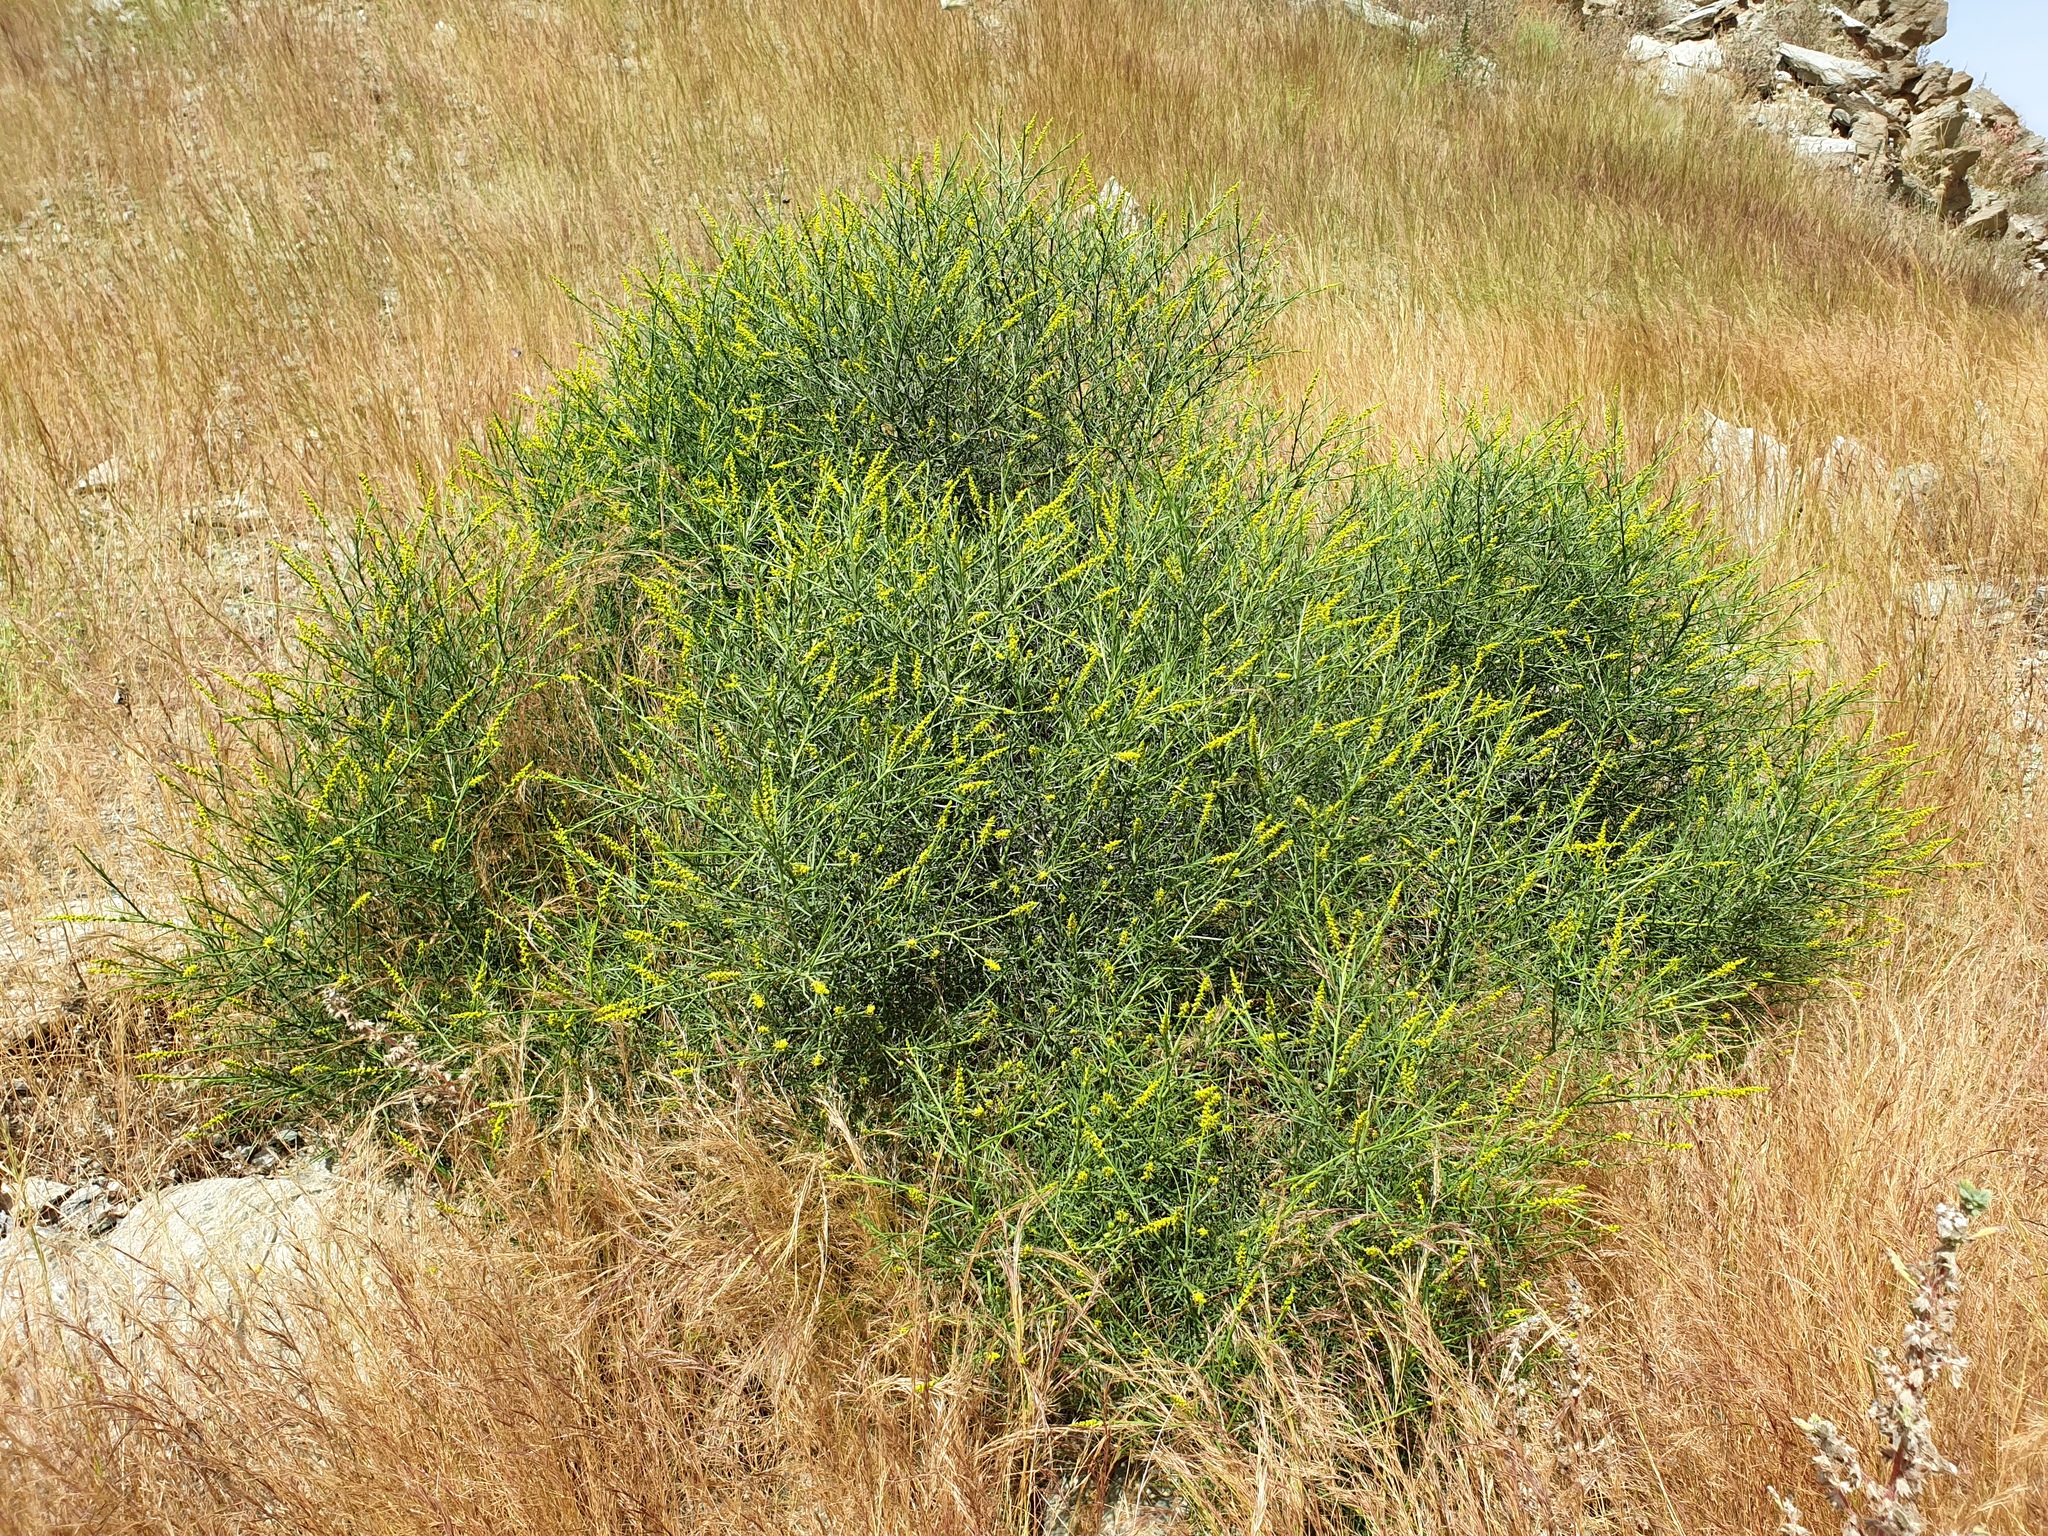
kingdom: Plantae
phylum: Tracheophyta
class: Magnoliopsida
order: Brassicales
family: Resedaceae
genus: Ochradenus
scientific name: Ochradenus arabicus
